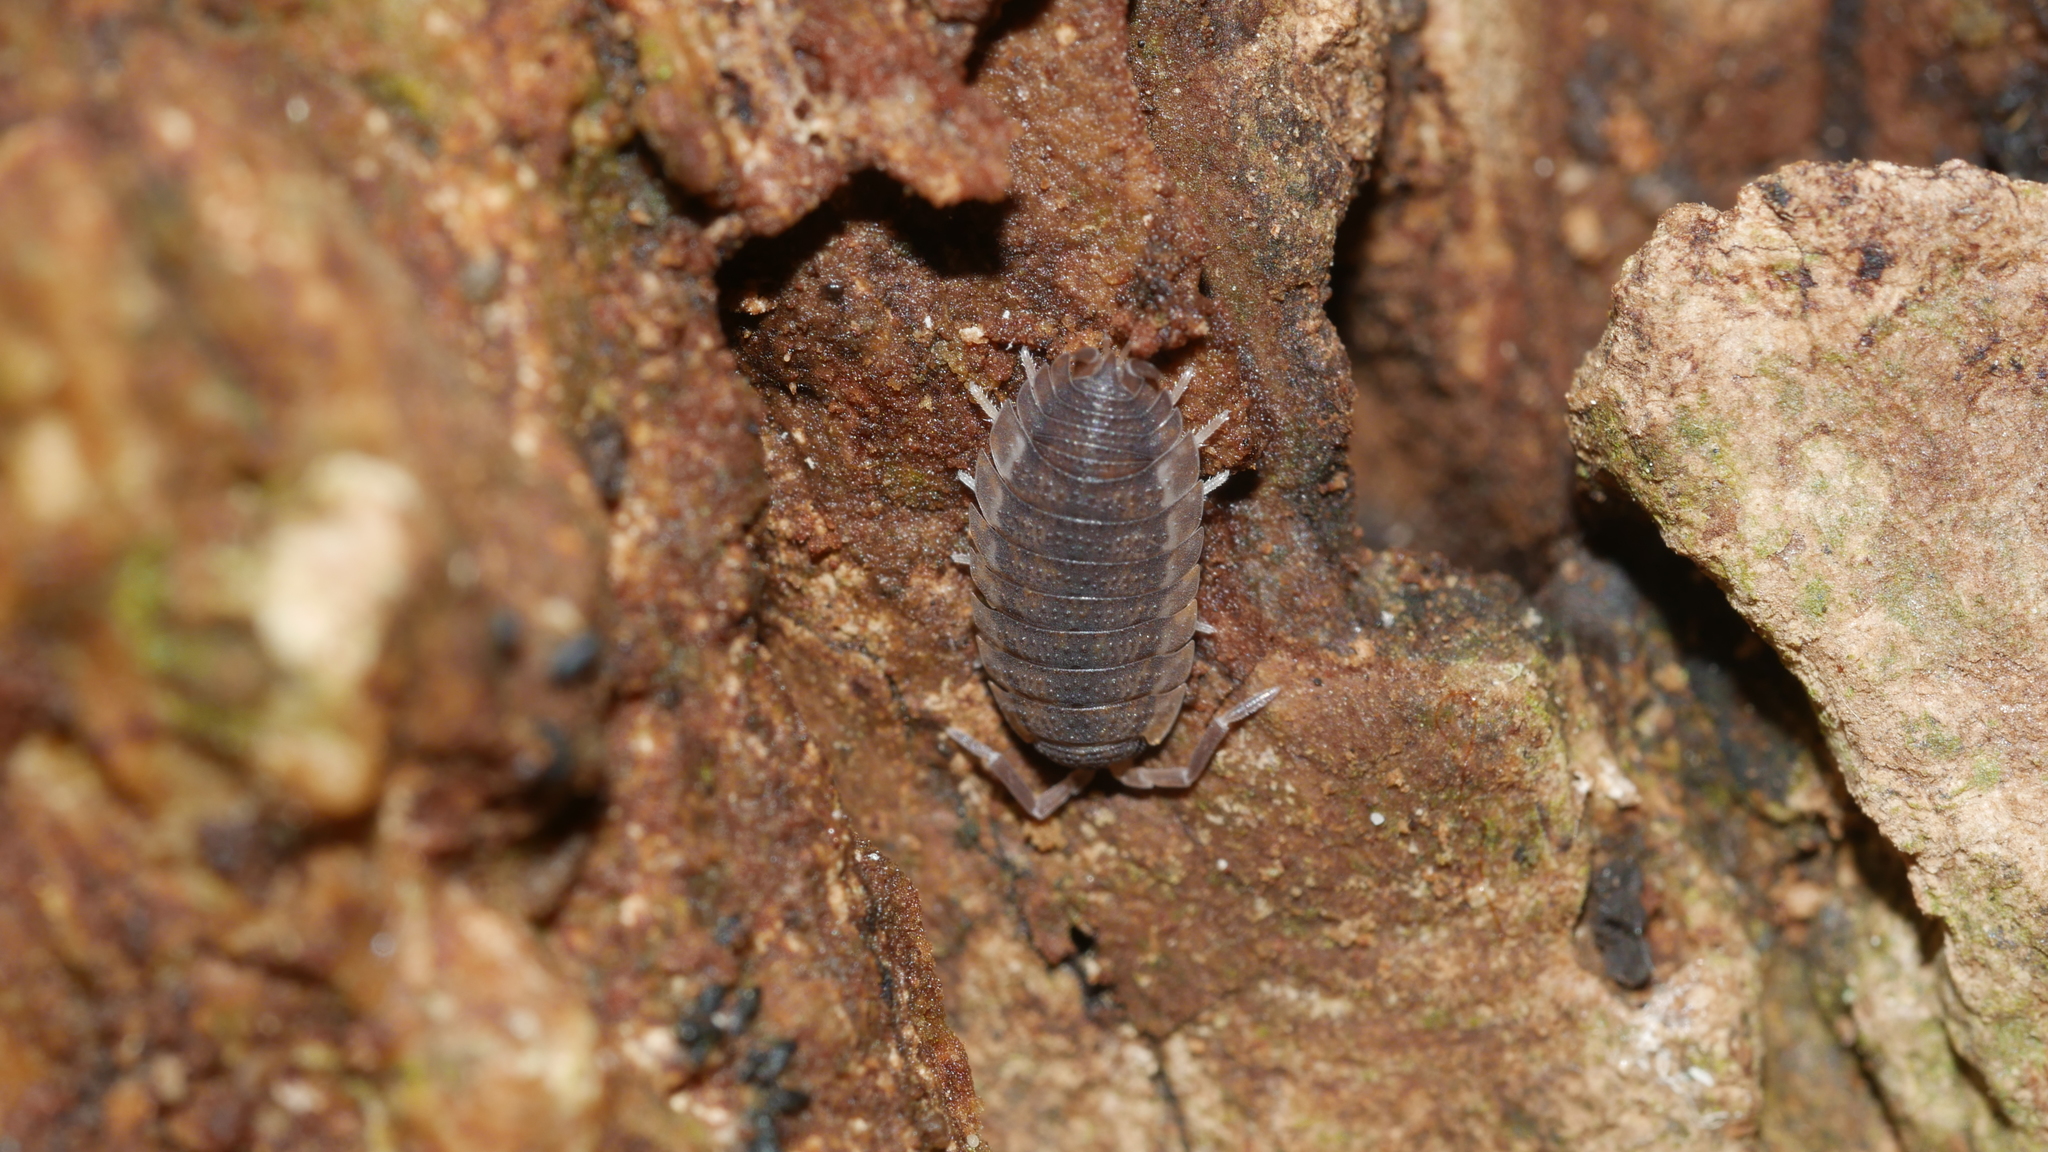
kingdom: Animalia
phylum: Arthropoda
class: Malacostraca
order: Isopoda
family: Porcellionidae
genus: Porcellio
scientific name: Porcellio scaber
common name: Common rough woodlouse
